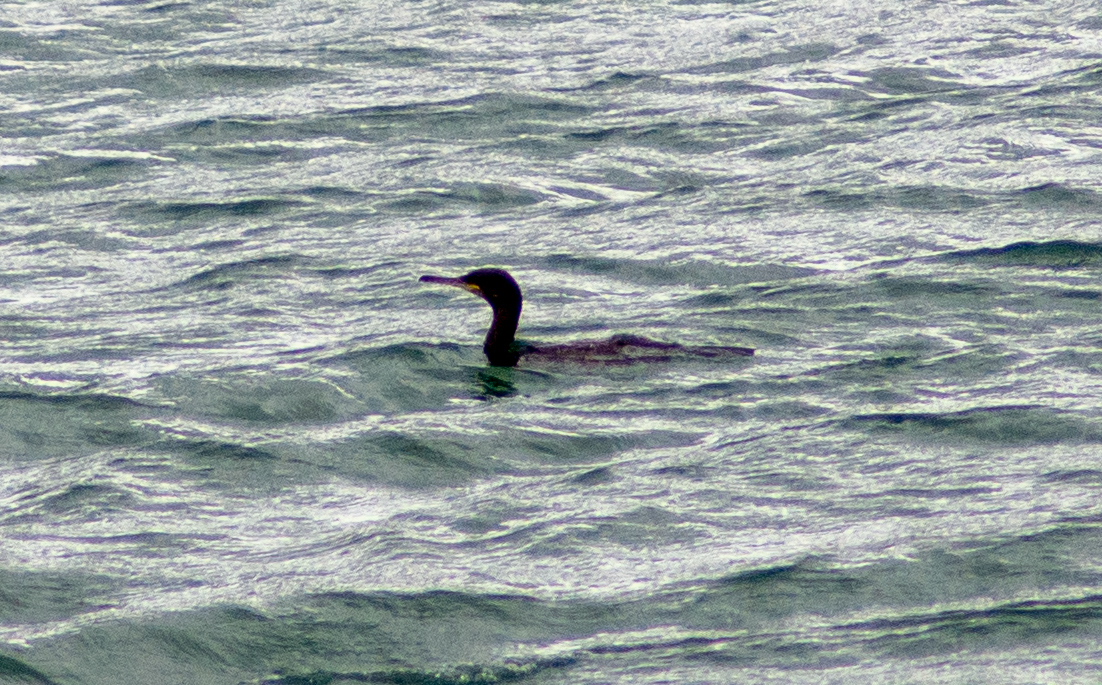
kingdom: Animalia
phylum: Chordata
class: Aves
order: Suliformes
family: Phalacrocoracidae
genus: Phalacrocorax
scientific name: Phalacrocorax aristotelis
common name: European shag
